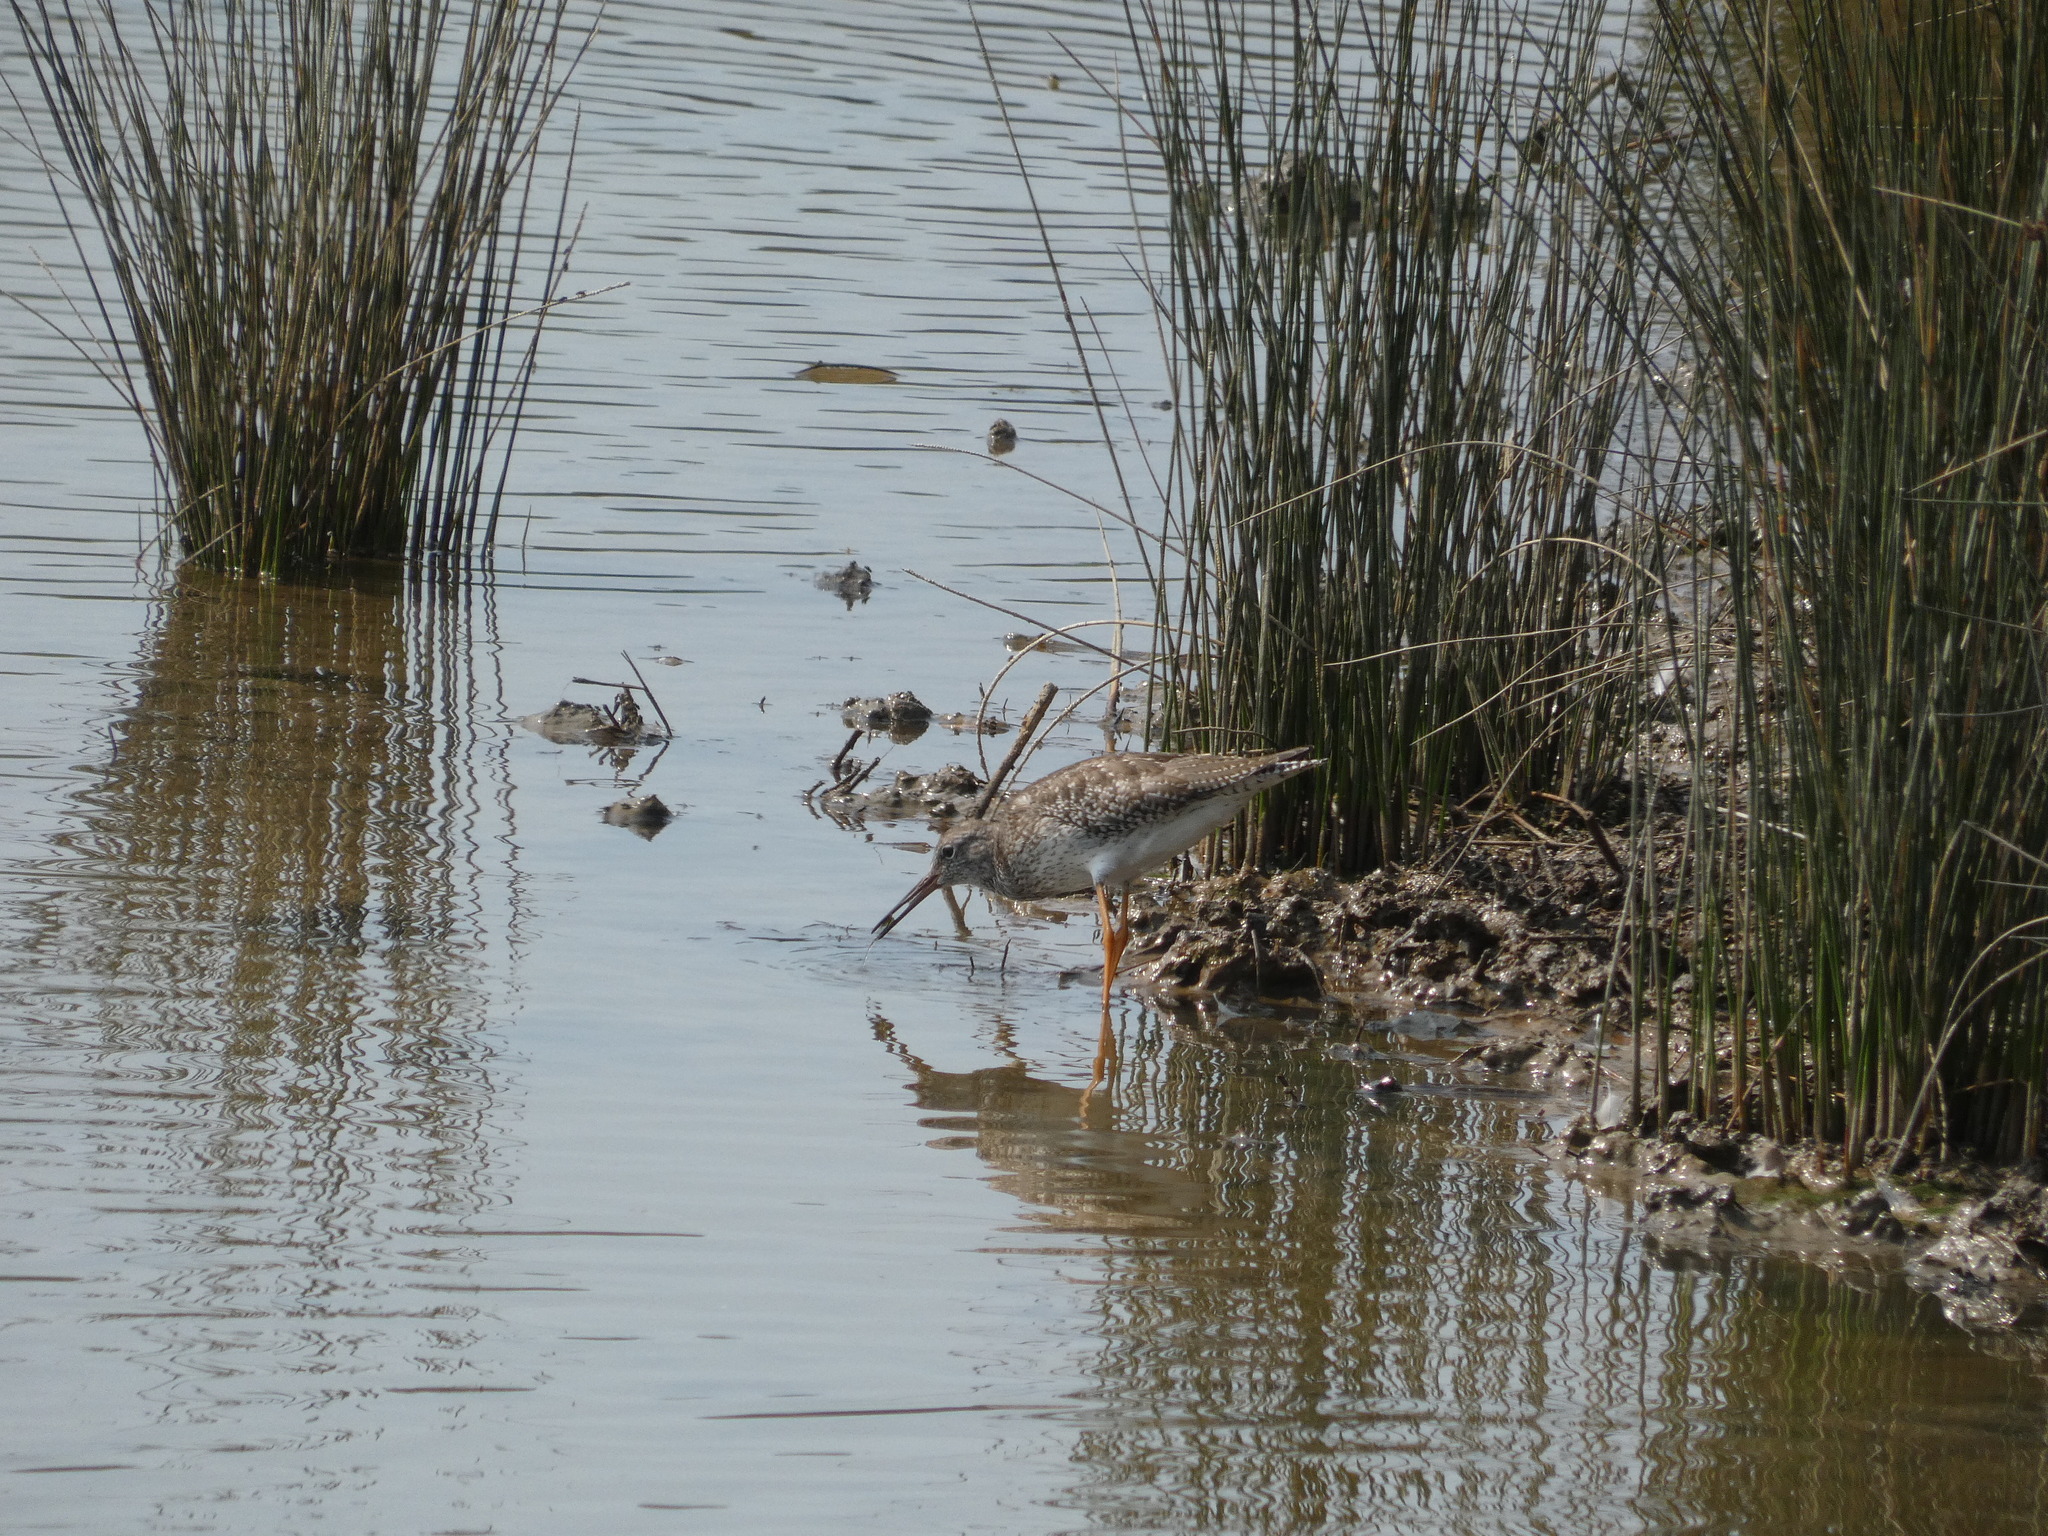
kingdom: Animalia
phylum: Chordata
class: Aves
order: Charadriiformes
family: Scolopacidae
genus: Tringa
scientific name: Tringa totanus
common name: Common redshank
